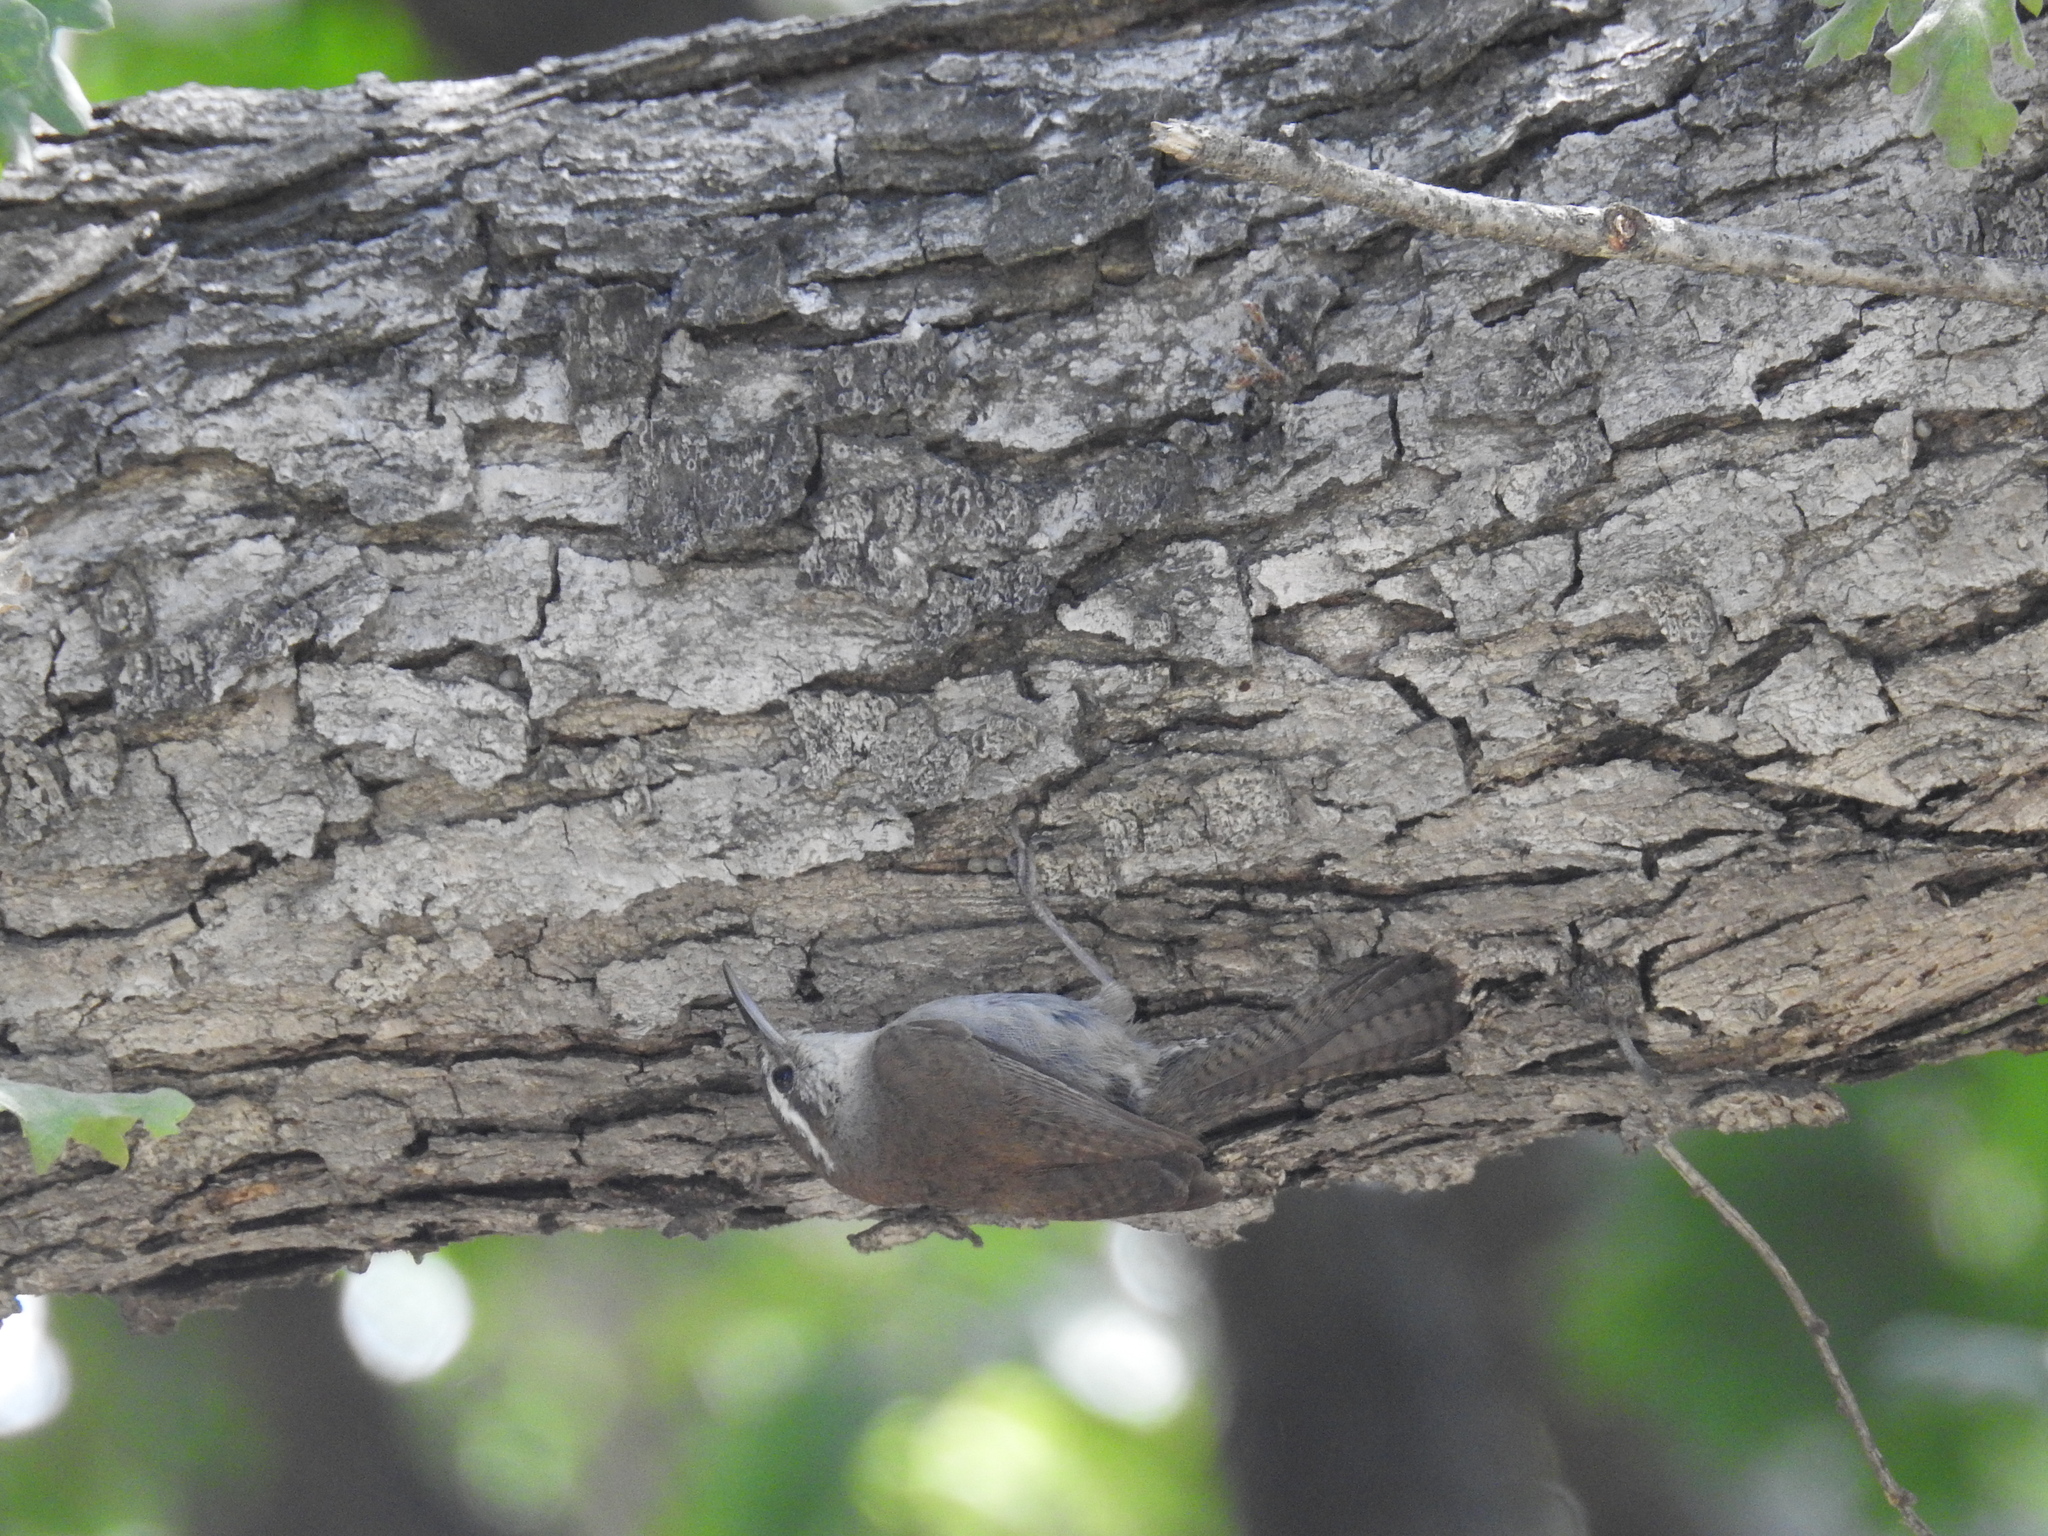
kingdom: Animalia
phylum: Chordata
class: Aves
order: Passeriformes
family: Troglodytidae
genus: Thryomanes
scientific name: Thryomanes bewickii
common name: Bewick's wren
